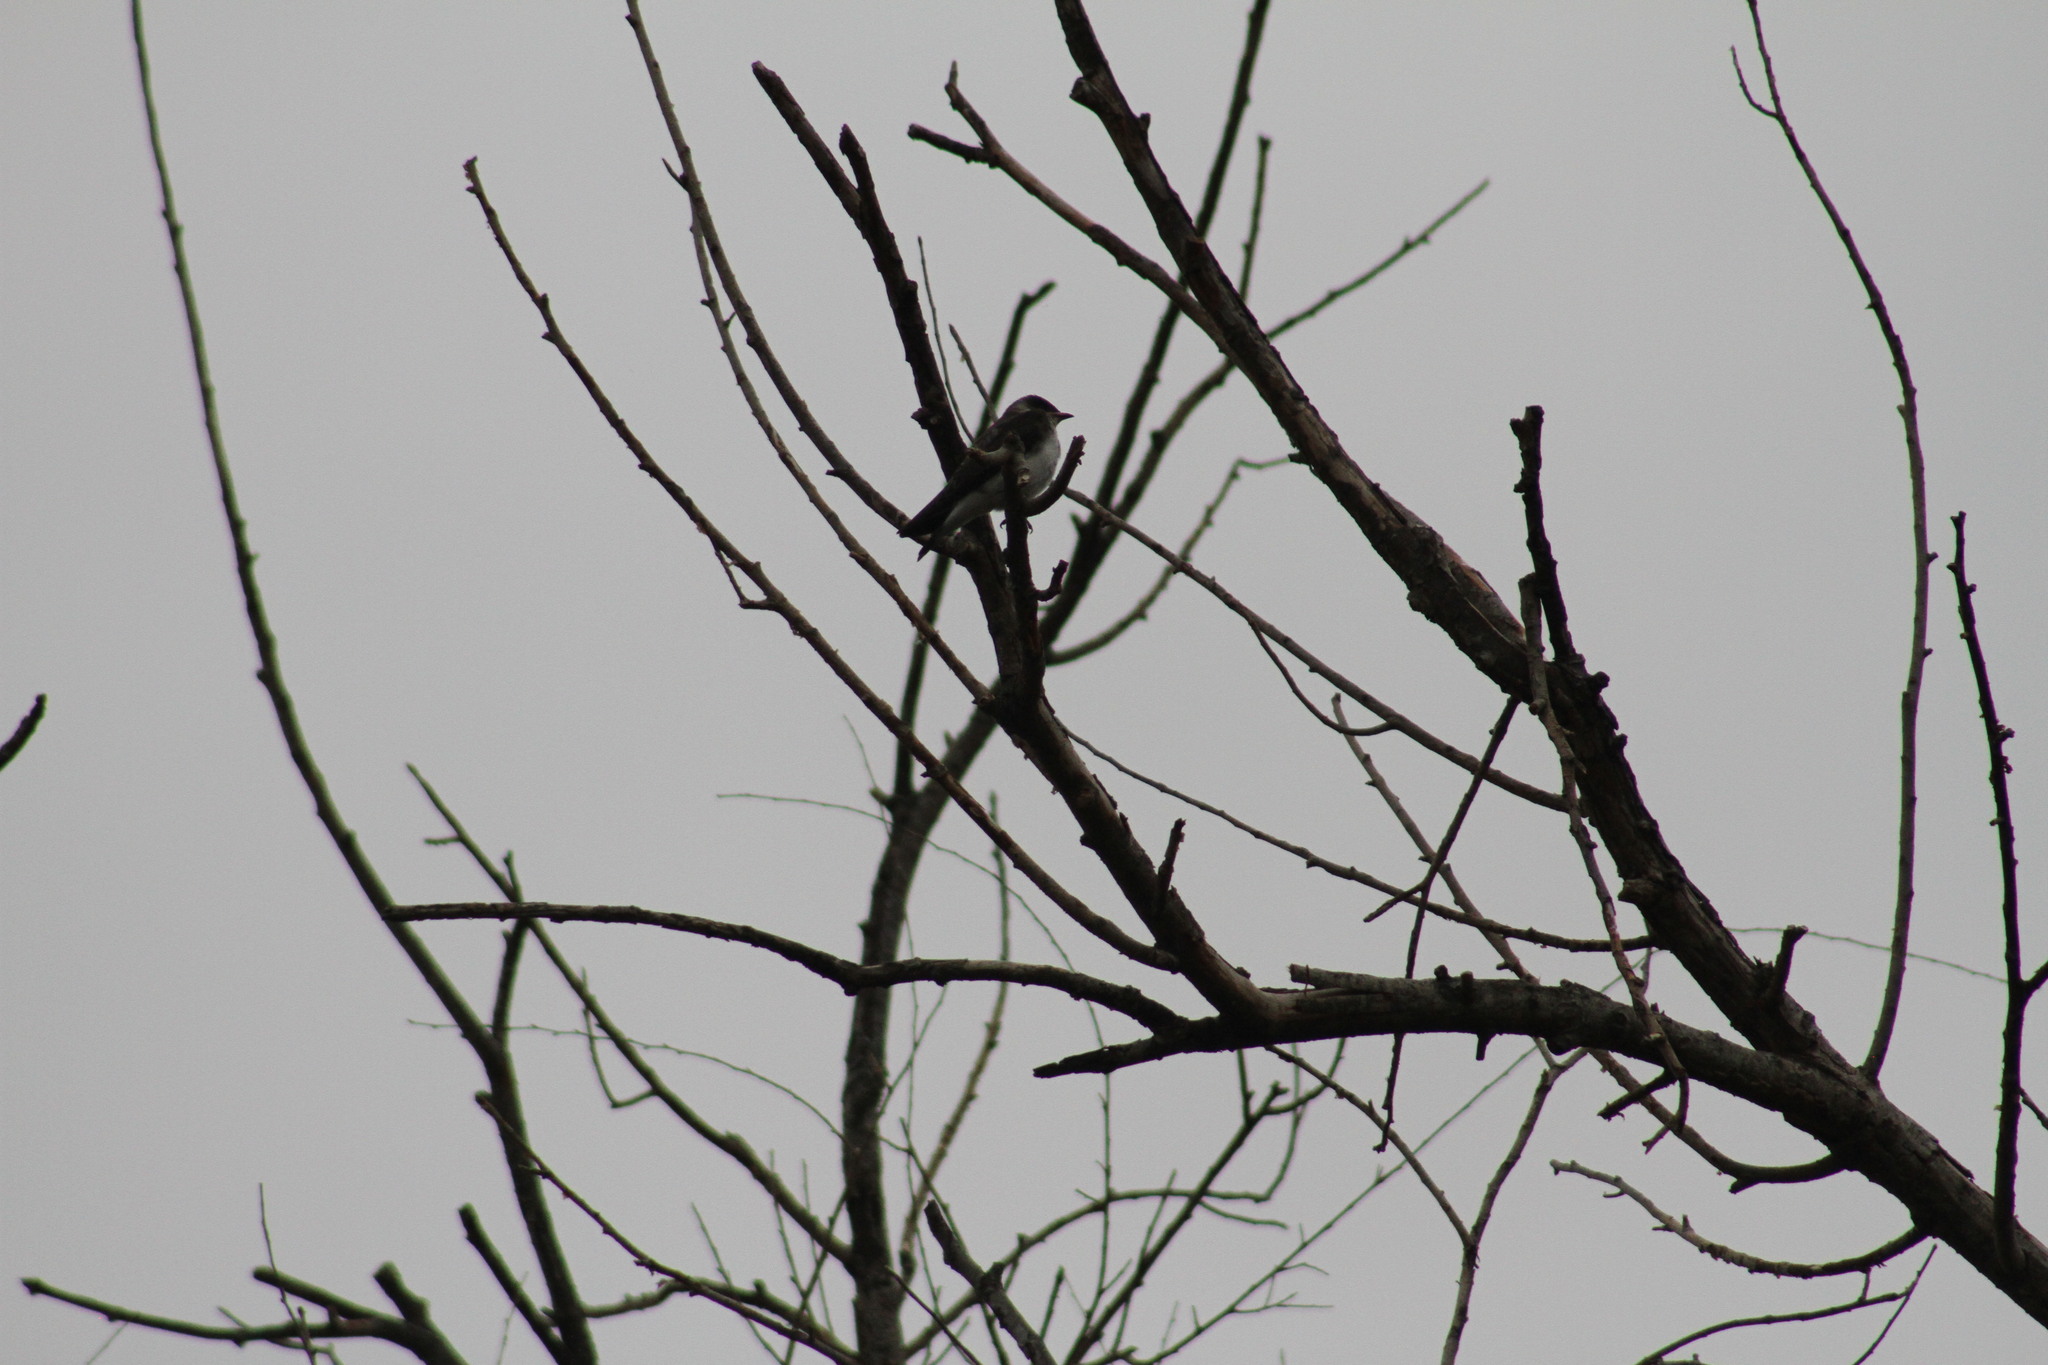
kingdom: Animalia
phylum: Chordata
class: Aves
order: Passeriformes
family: Hirundinidae
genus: Progne
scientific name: Progne tapera
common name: Brown-chested martin
